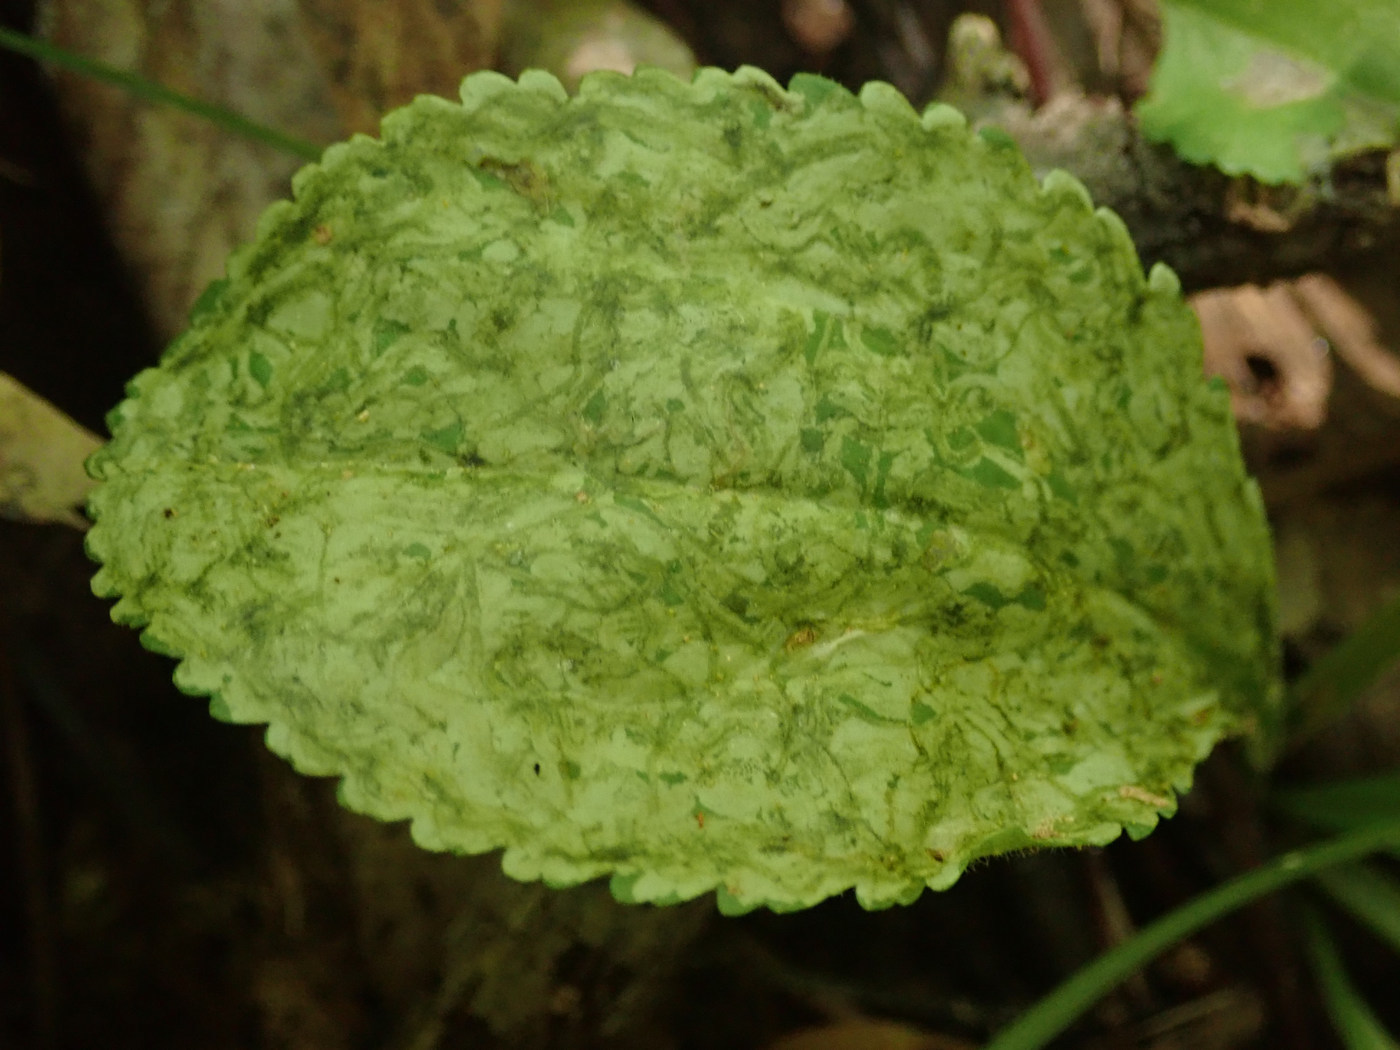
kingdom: Animalia
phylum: Arthropoda
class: Insecta
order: Lepidoptera
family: Gracillariidae
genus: Phyllocnistis
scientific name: Phyllocnistis insignis
